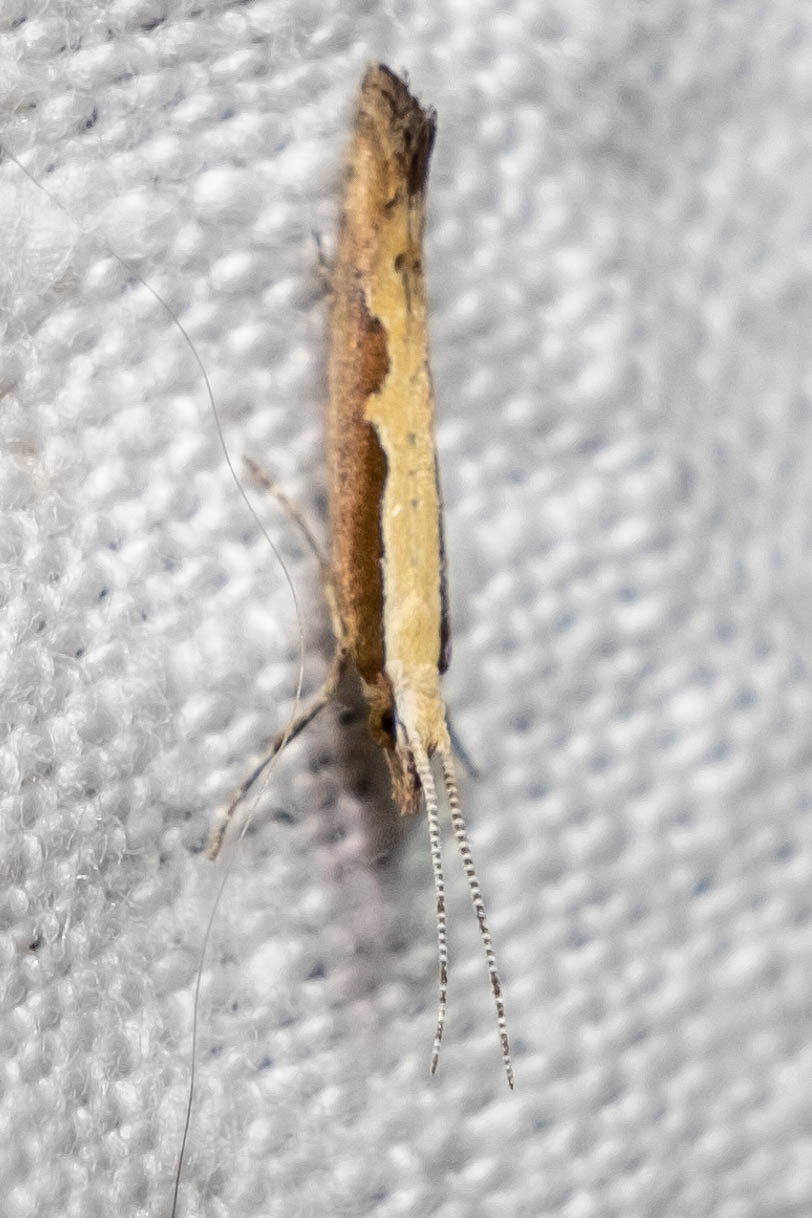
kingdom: Animalia
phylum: Arthropoda
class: Insecta
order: Lepidoptera
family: Plutellidae
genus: Plutella
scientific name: Plutella xylostella
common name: Diamond-back moth
